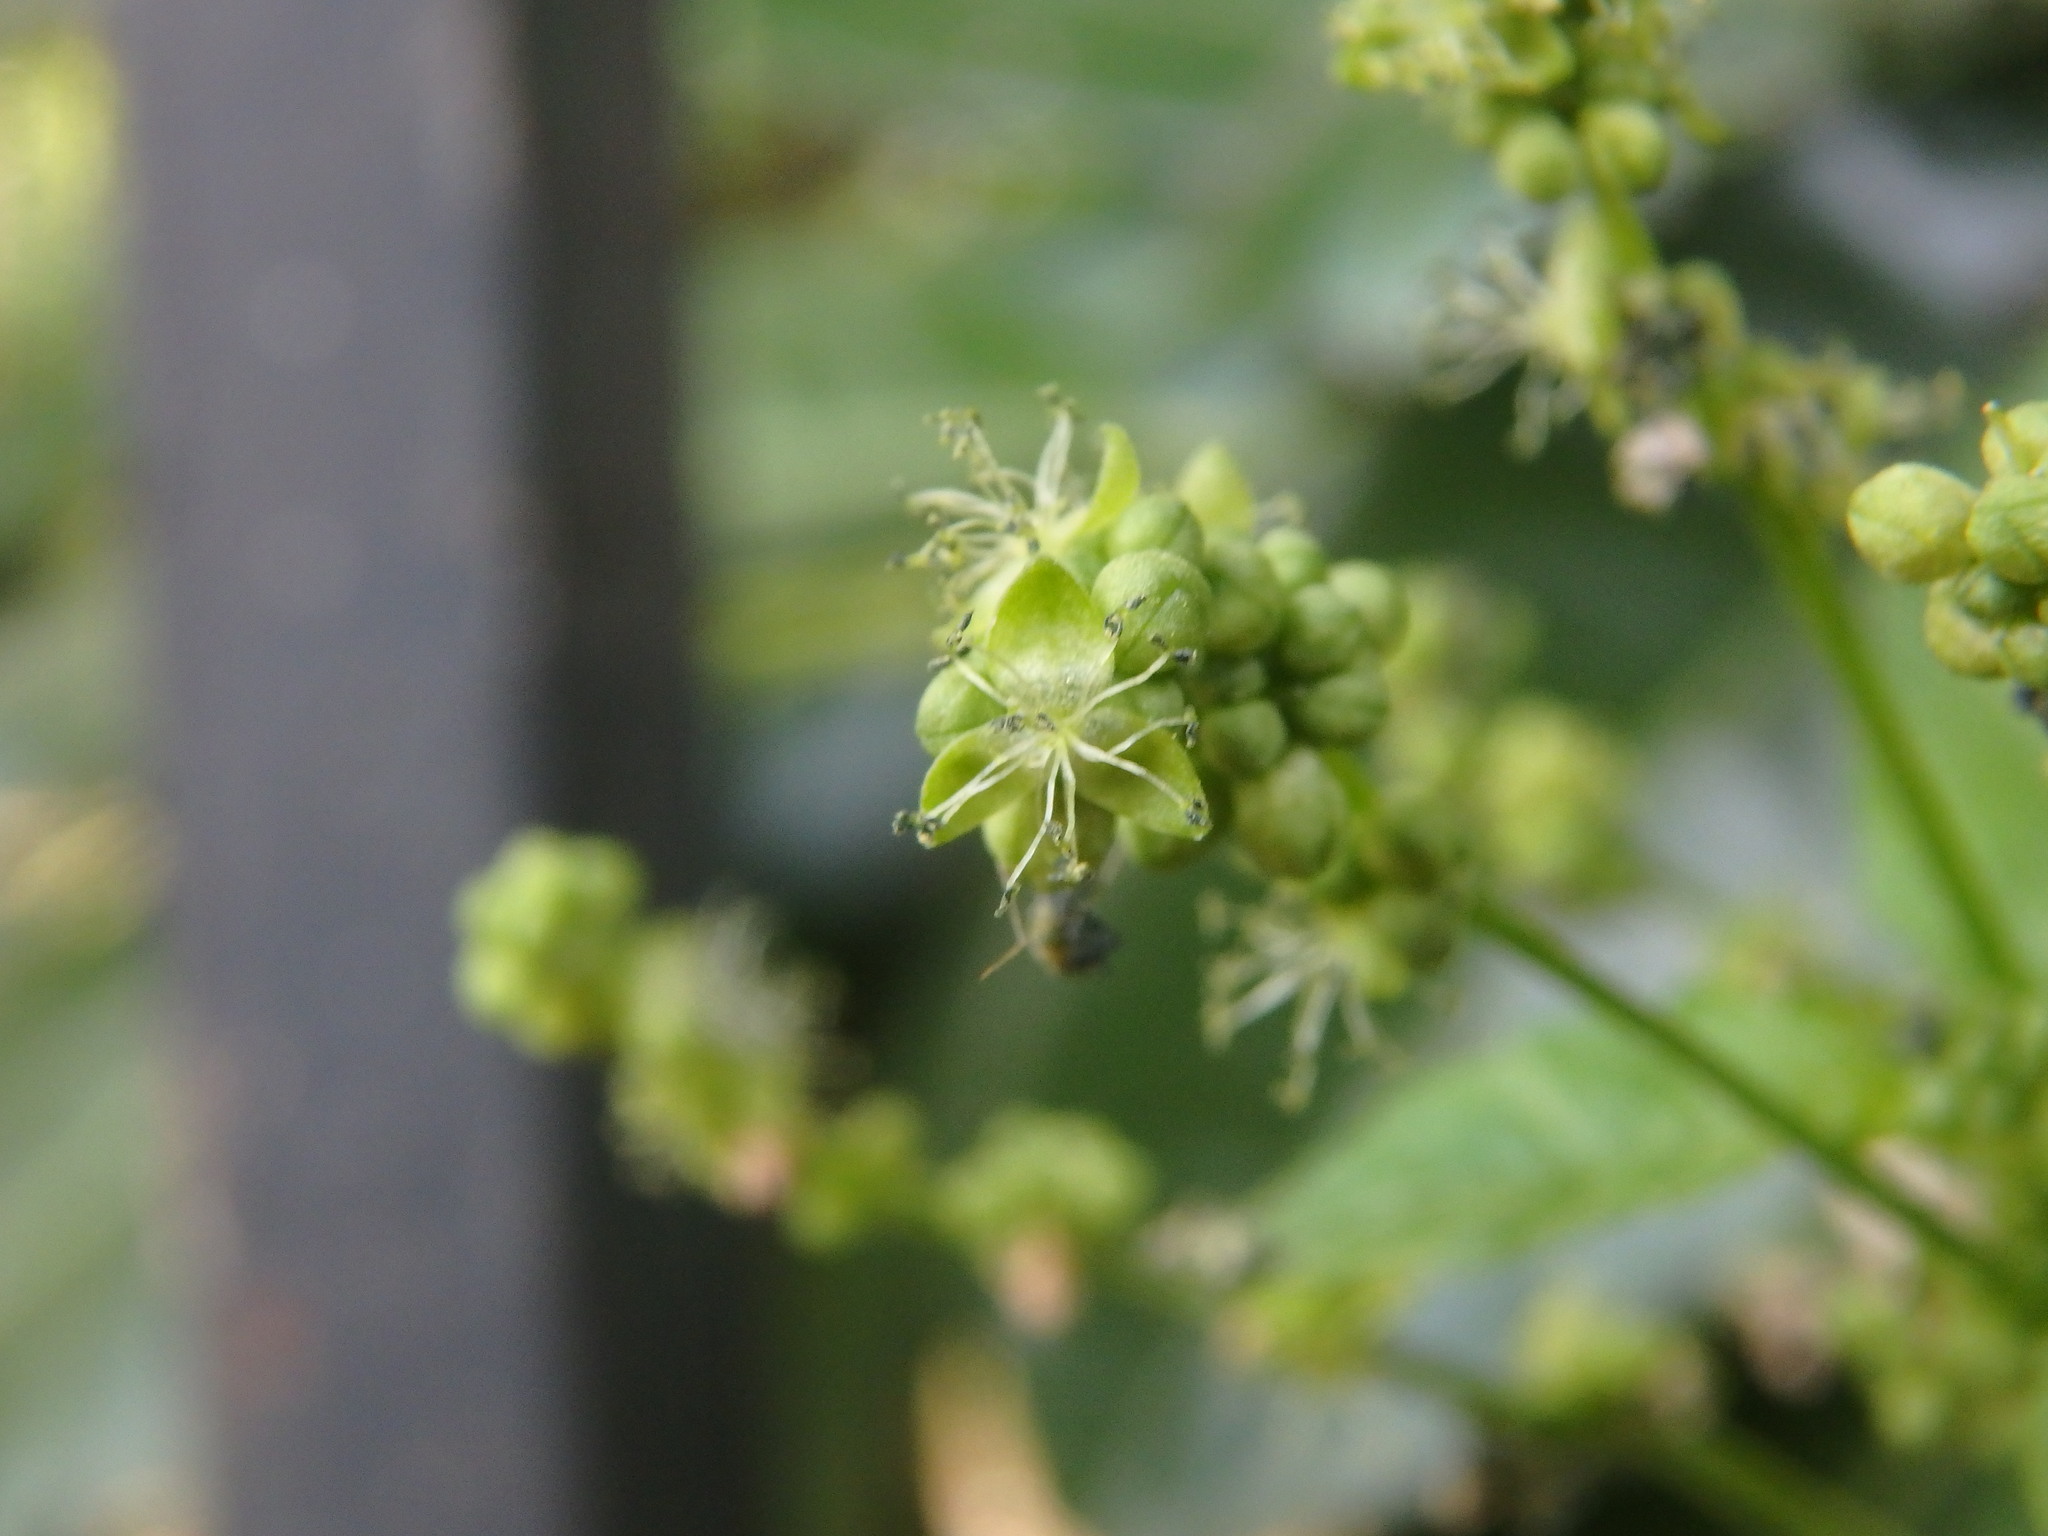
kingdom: Plantae
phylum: Tracheophyta
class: Magnoliopsida
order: Malpighiales
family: Euphorbiaceae
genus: Mercurialis
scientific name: Mercurialis annua
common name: Annual mercury
